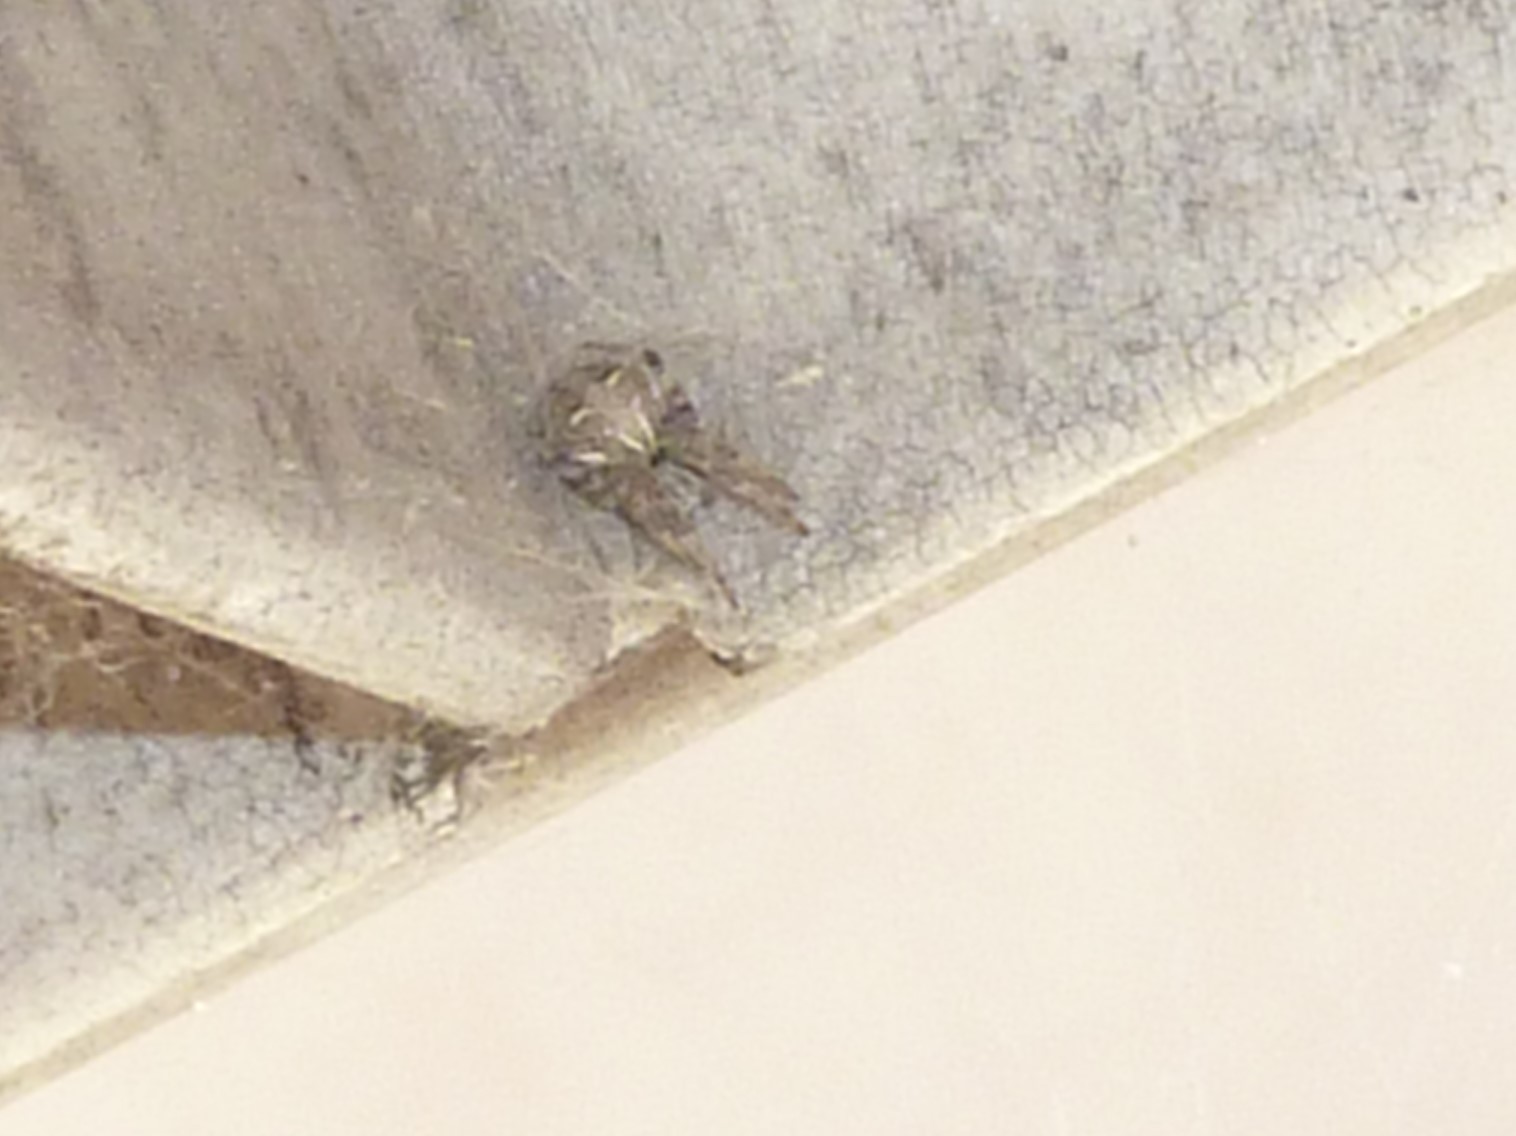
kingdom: Animalia
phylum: Arthropoda
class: Arachnida
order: Araneae
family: Araneidae
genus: Metepeira
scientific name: Metepeira
